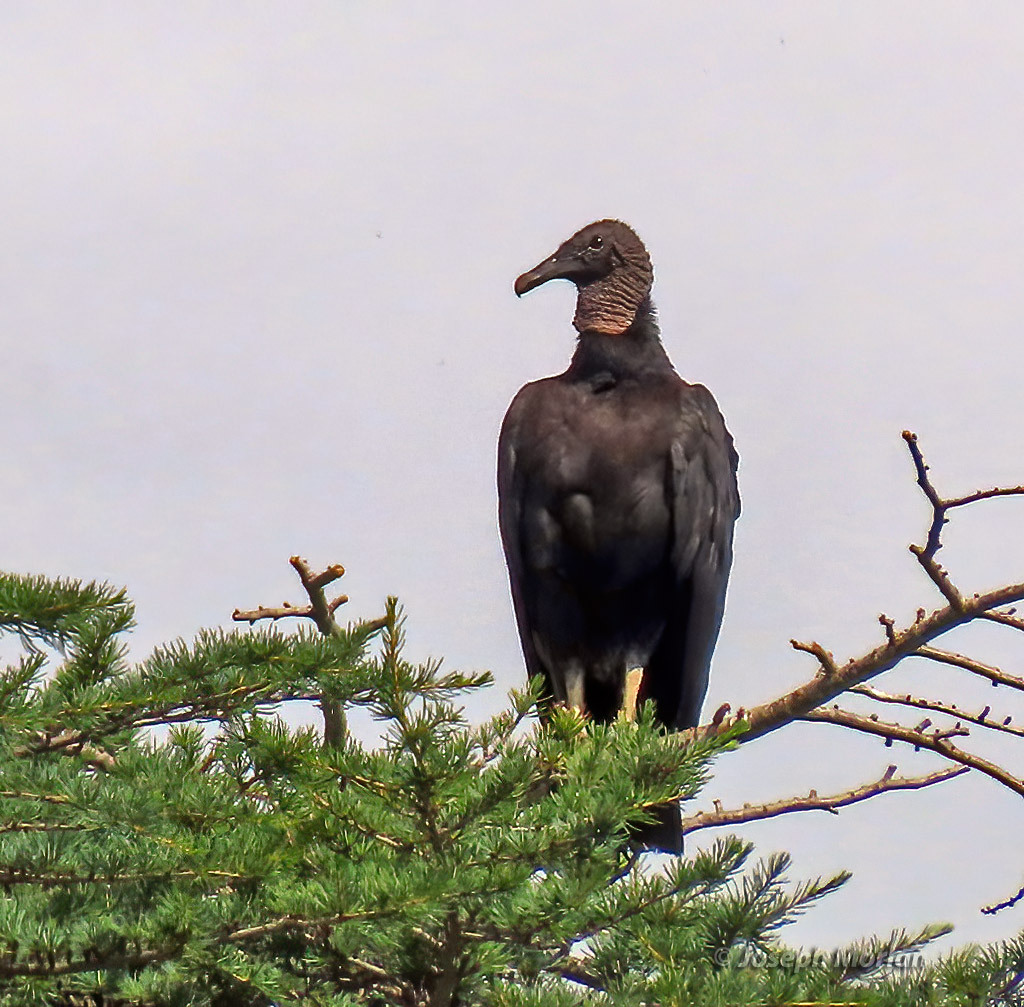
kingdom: Animalia
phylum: Chordata
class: Aves
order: Accipitriformes
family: Cathartidae
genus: Coragyps
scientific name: Coragyps atratus
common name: Black vulture
